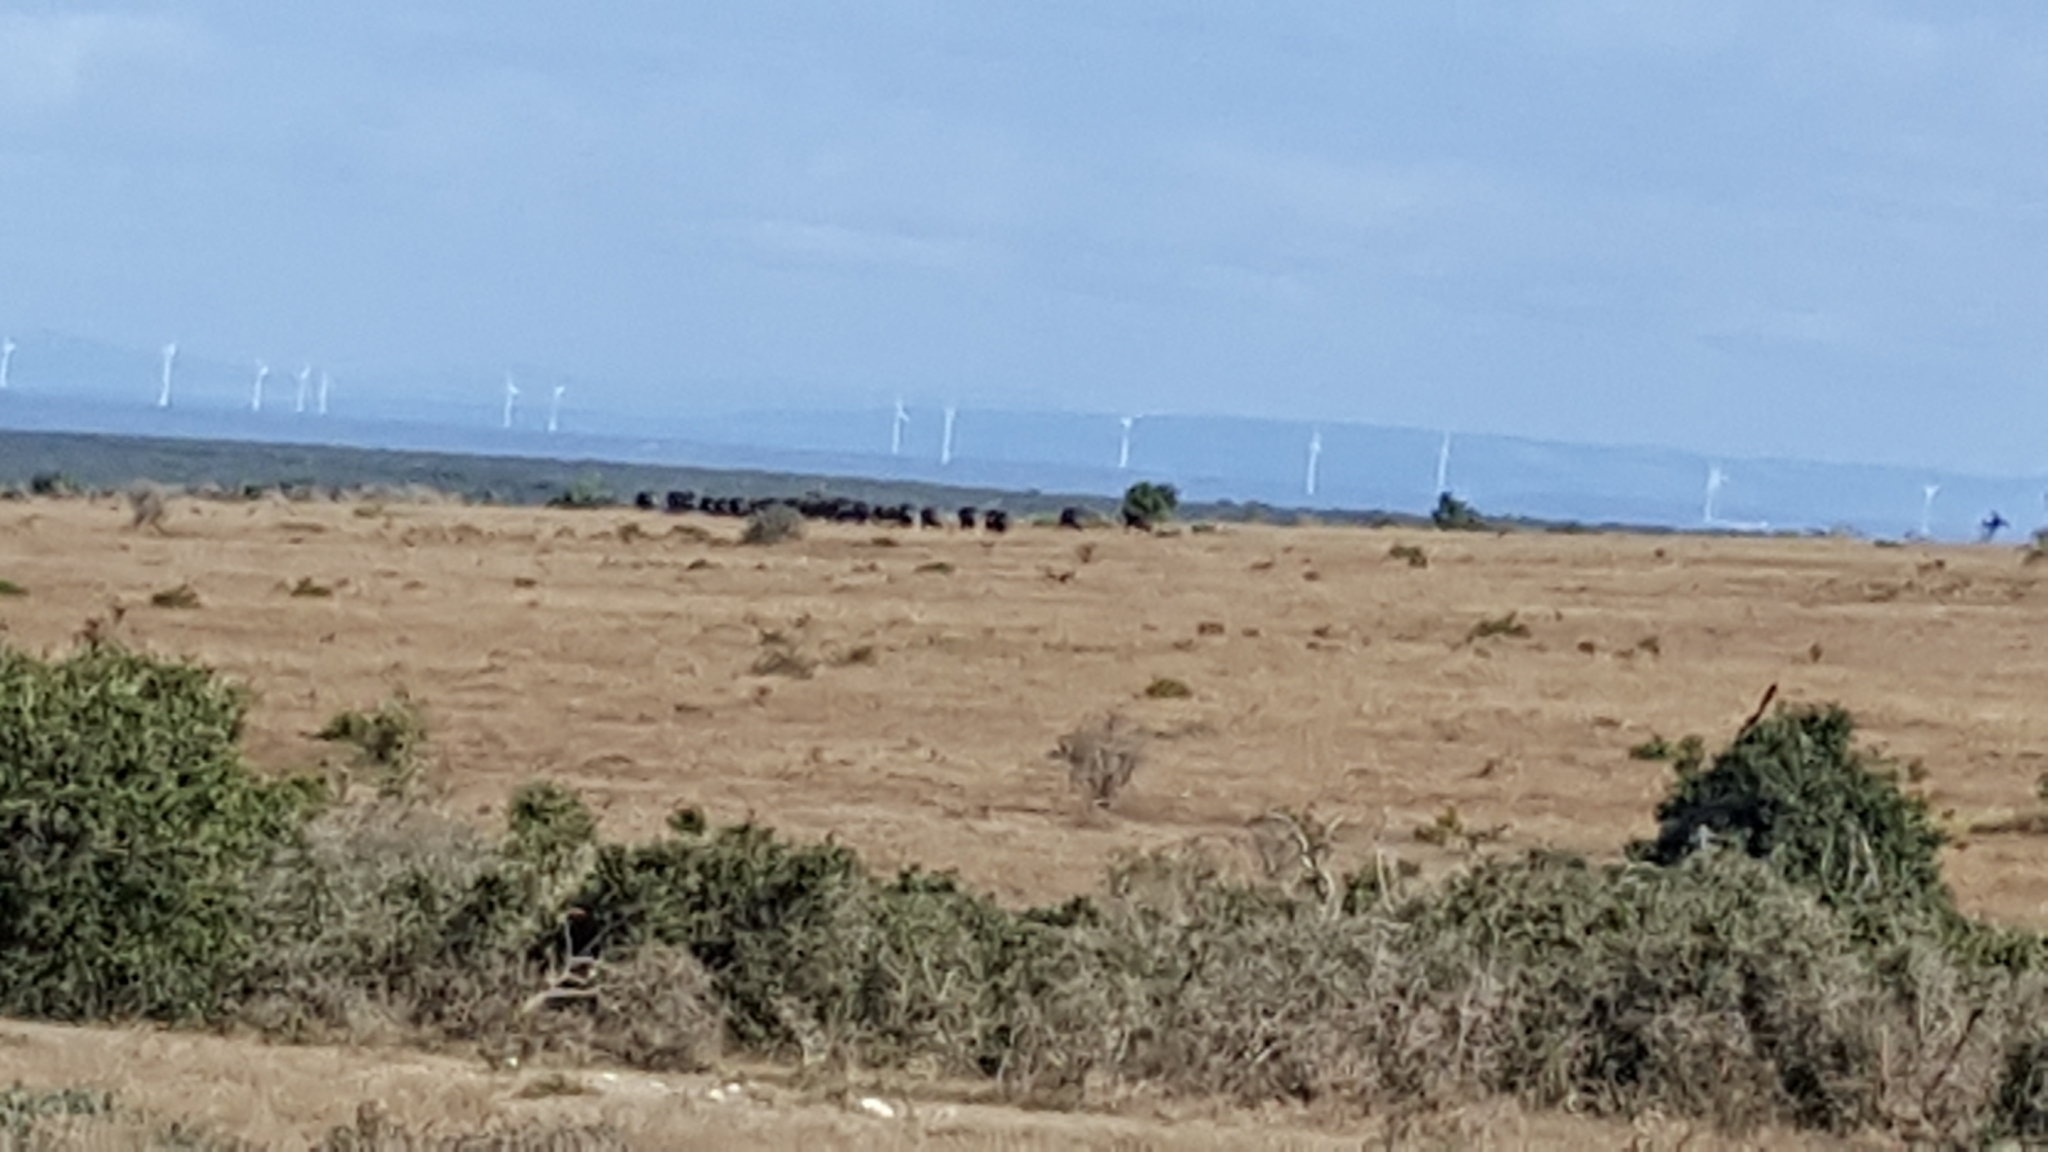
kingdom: Animalia
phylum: Chordata
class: Mammalia
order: Artiodactyla
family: Bovidae
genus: Syncerus
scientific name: Syncerus caffer
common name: African buffalo
